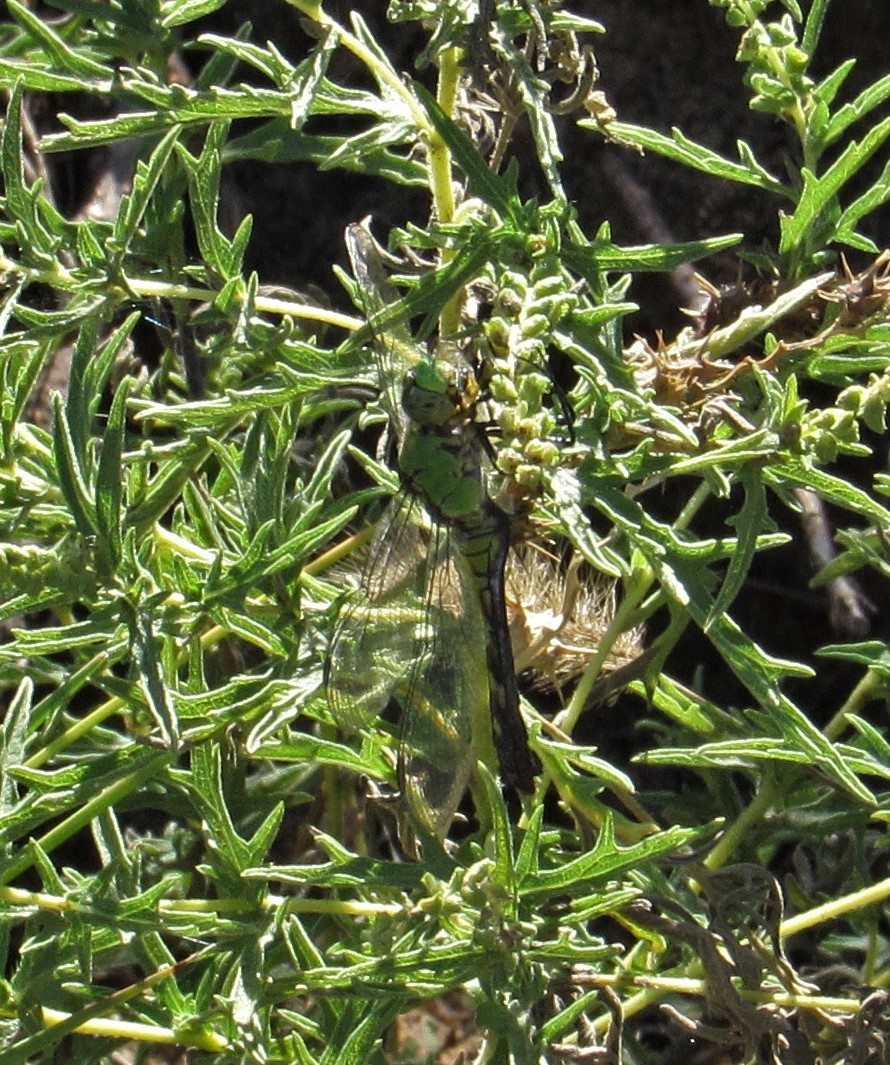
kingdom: Animalia
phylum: Arthropoda
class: Insecta
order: Odonata
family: Libellulidae
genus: Erythemis
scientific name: Erythemis simplicicollis
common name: Eastern pondhawk
